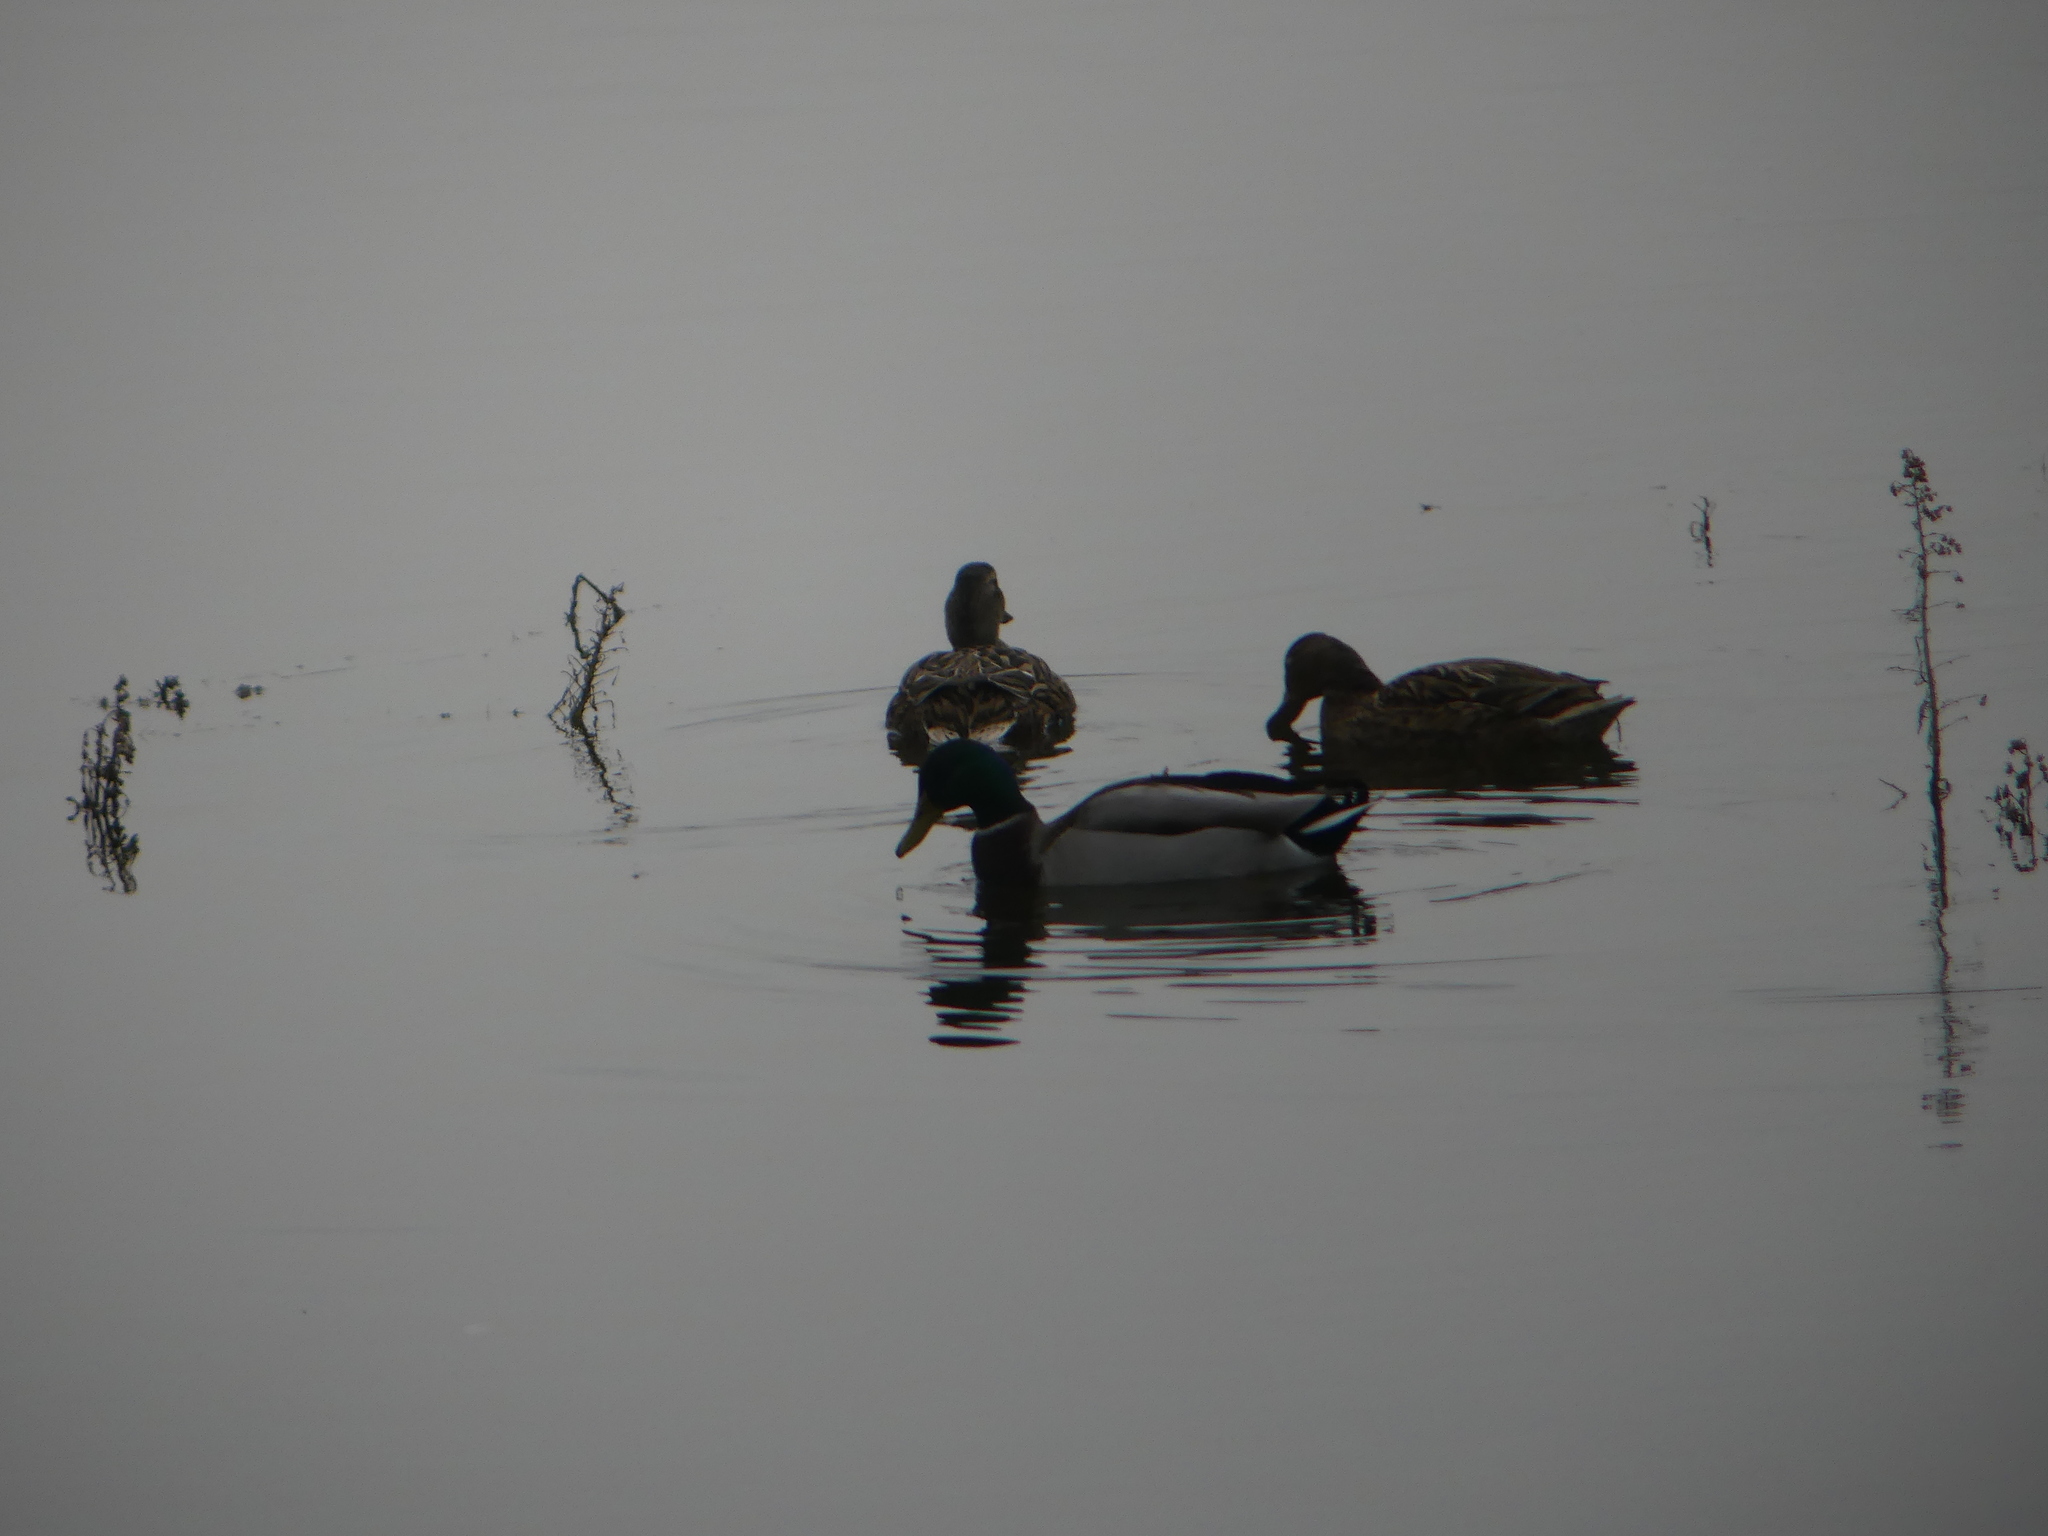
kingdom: Animalia
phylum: Chordata
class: Aves
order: Anseriformes
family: Anatidae
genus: Anas
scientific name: Anas platyrhynchos
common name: Mallard
